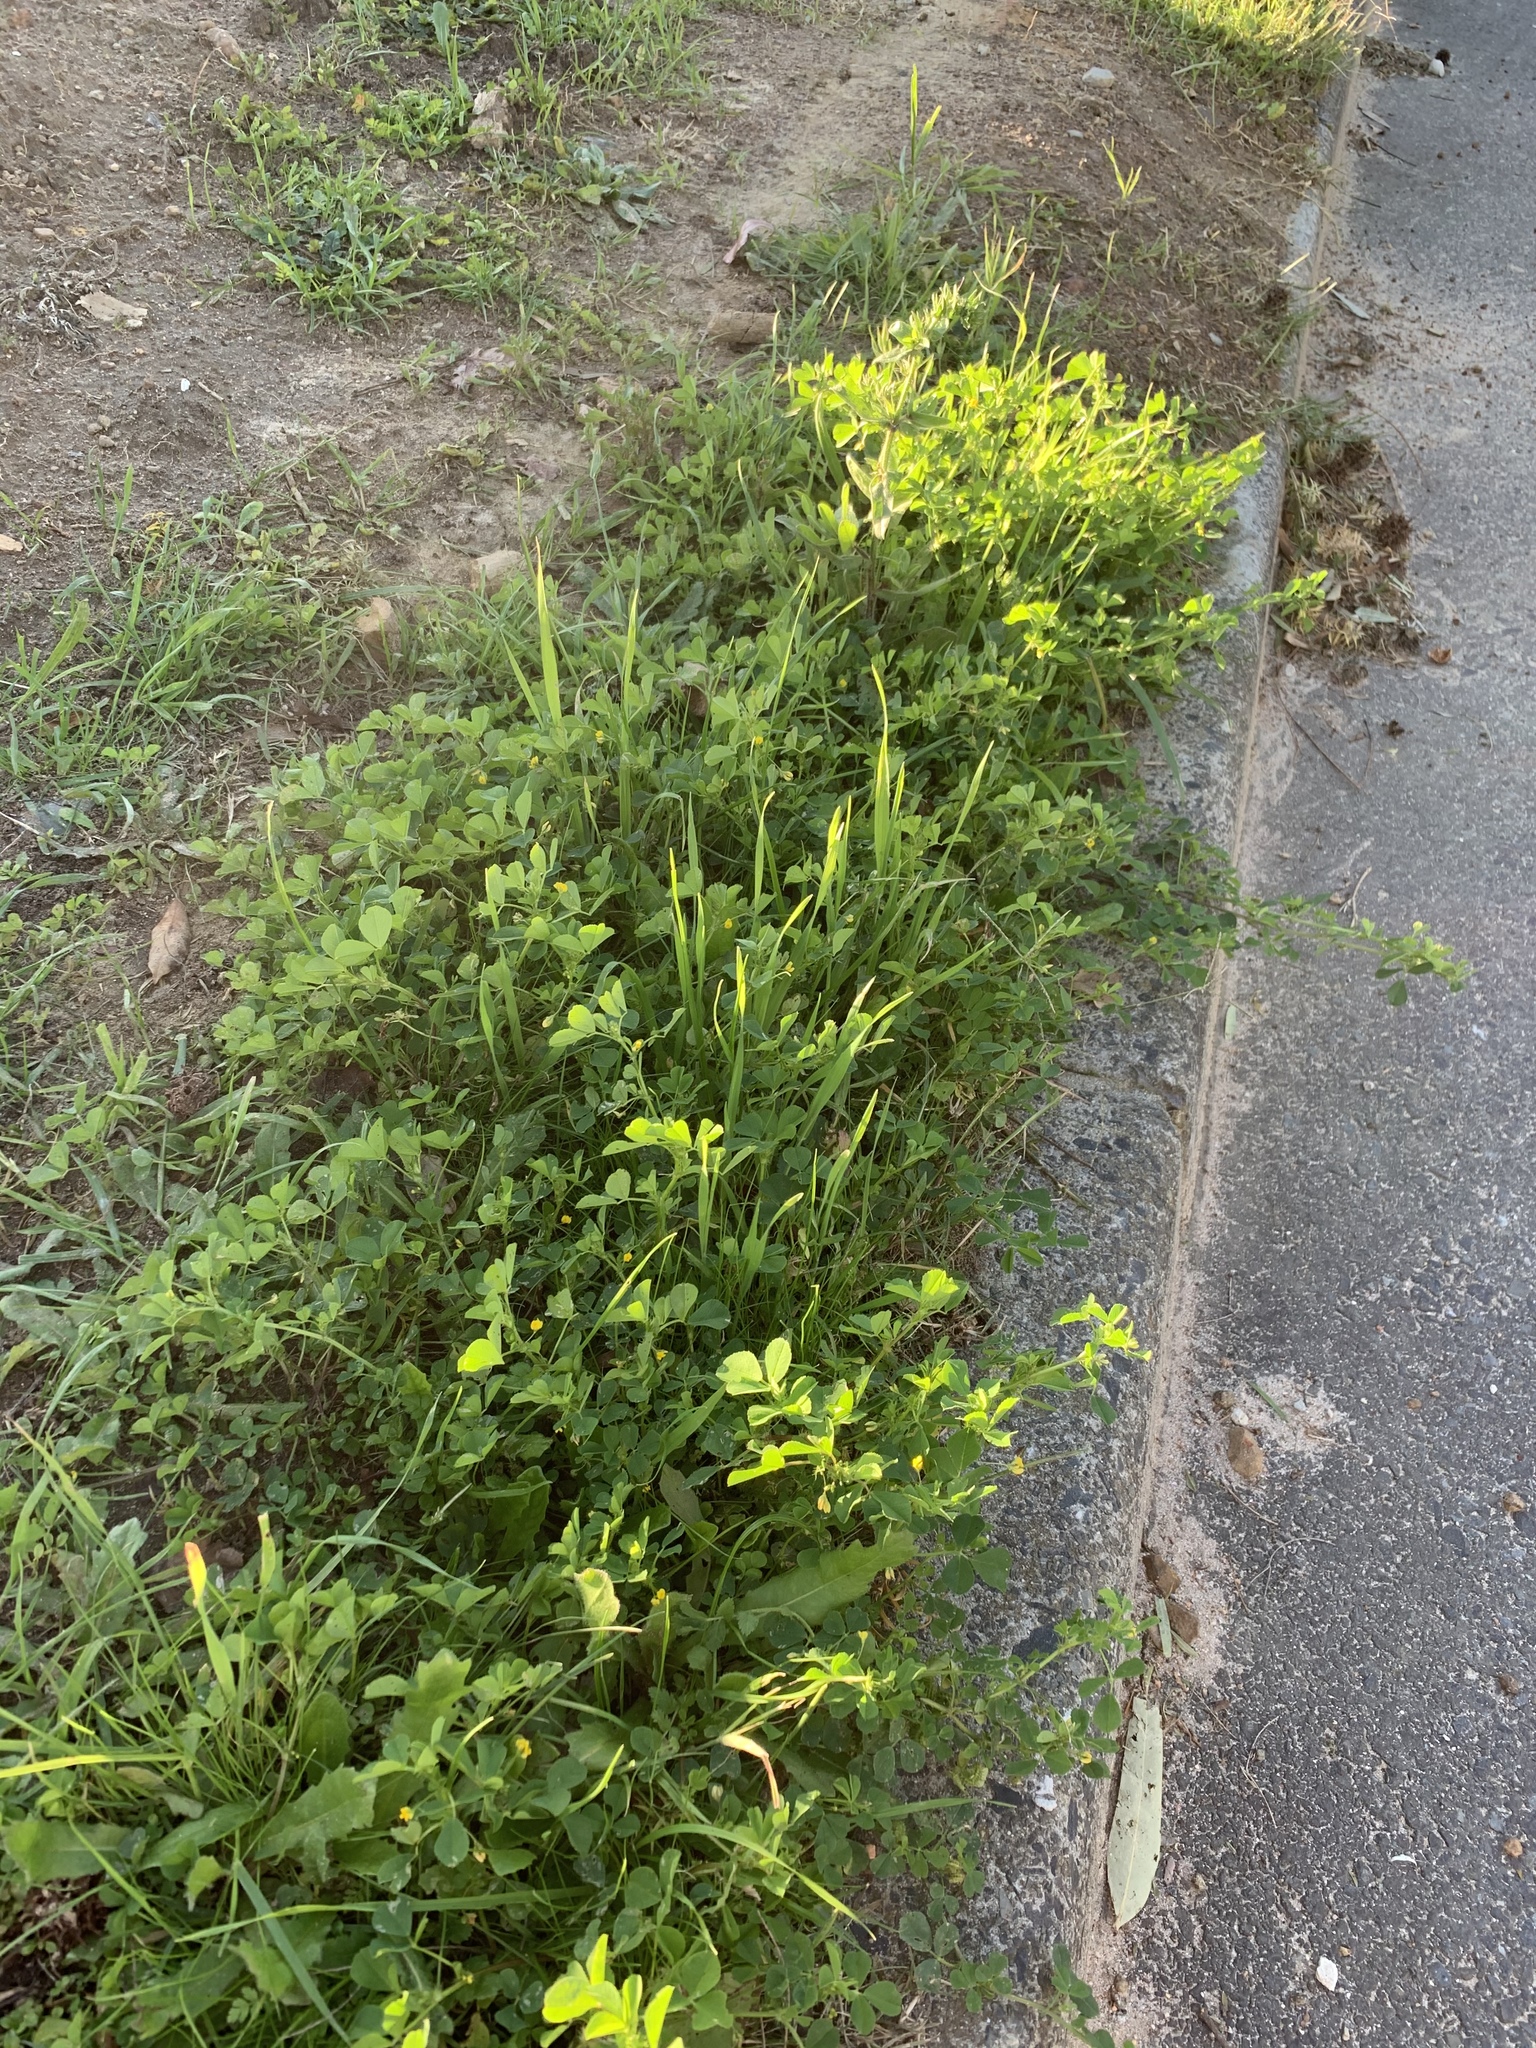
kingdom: Plantae
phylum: Tracheophyta
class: Magnoliopsida
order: Fabales
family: Fabaceae
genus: Medicago
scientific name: Medicago polymorpha
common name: Burclover
